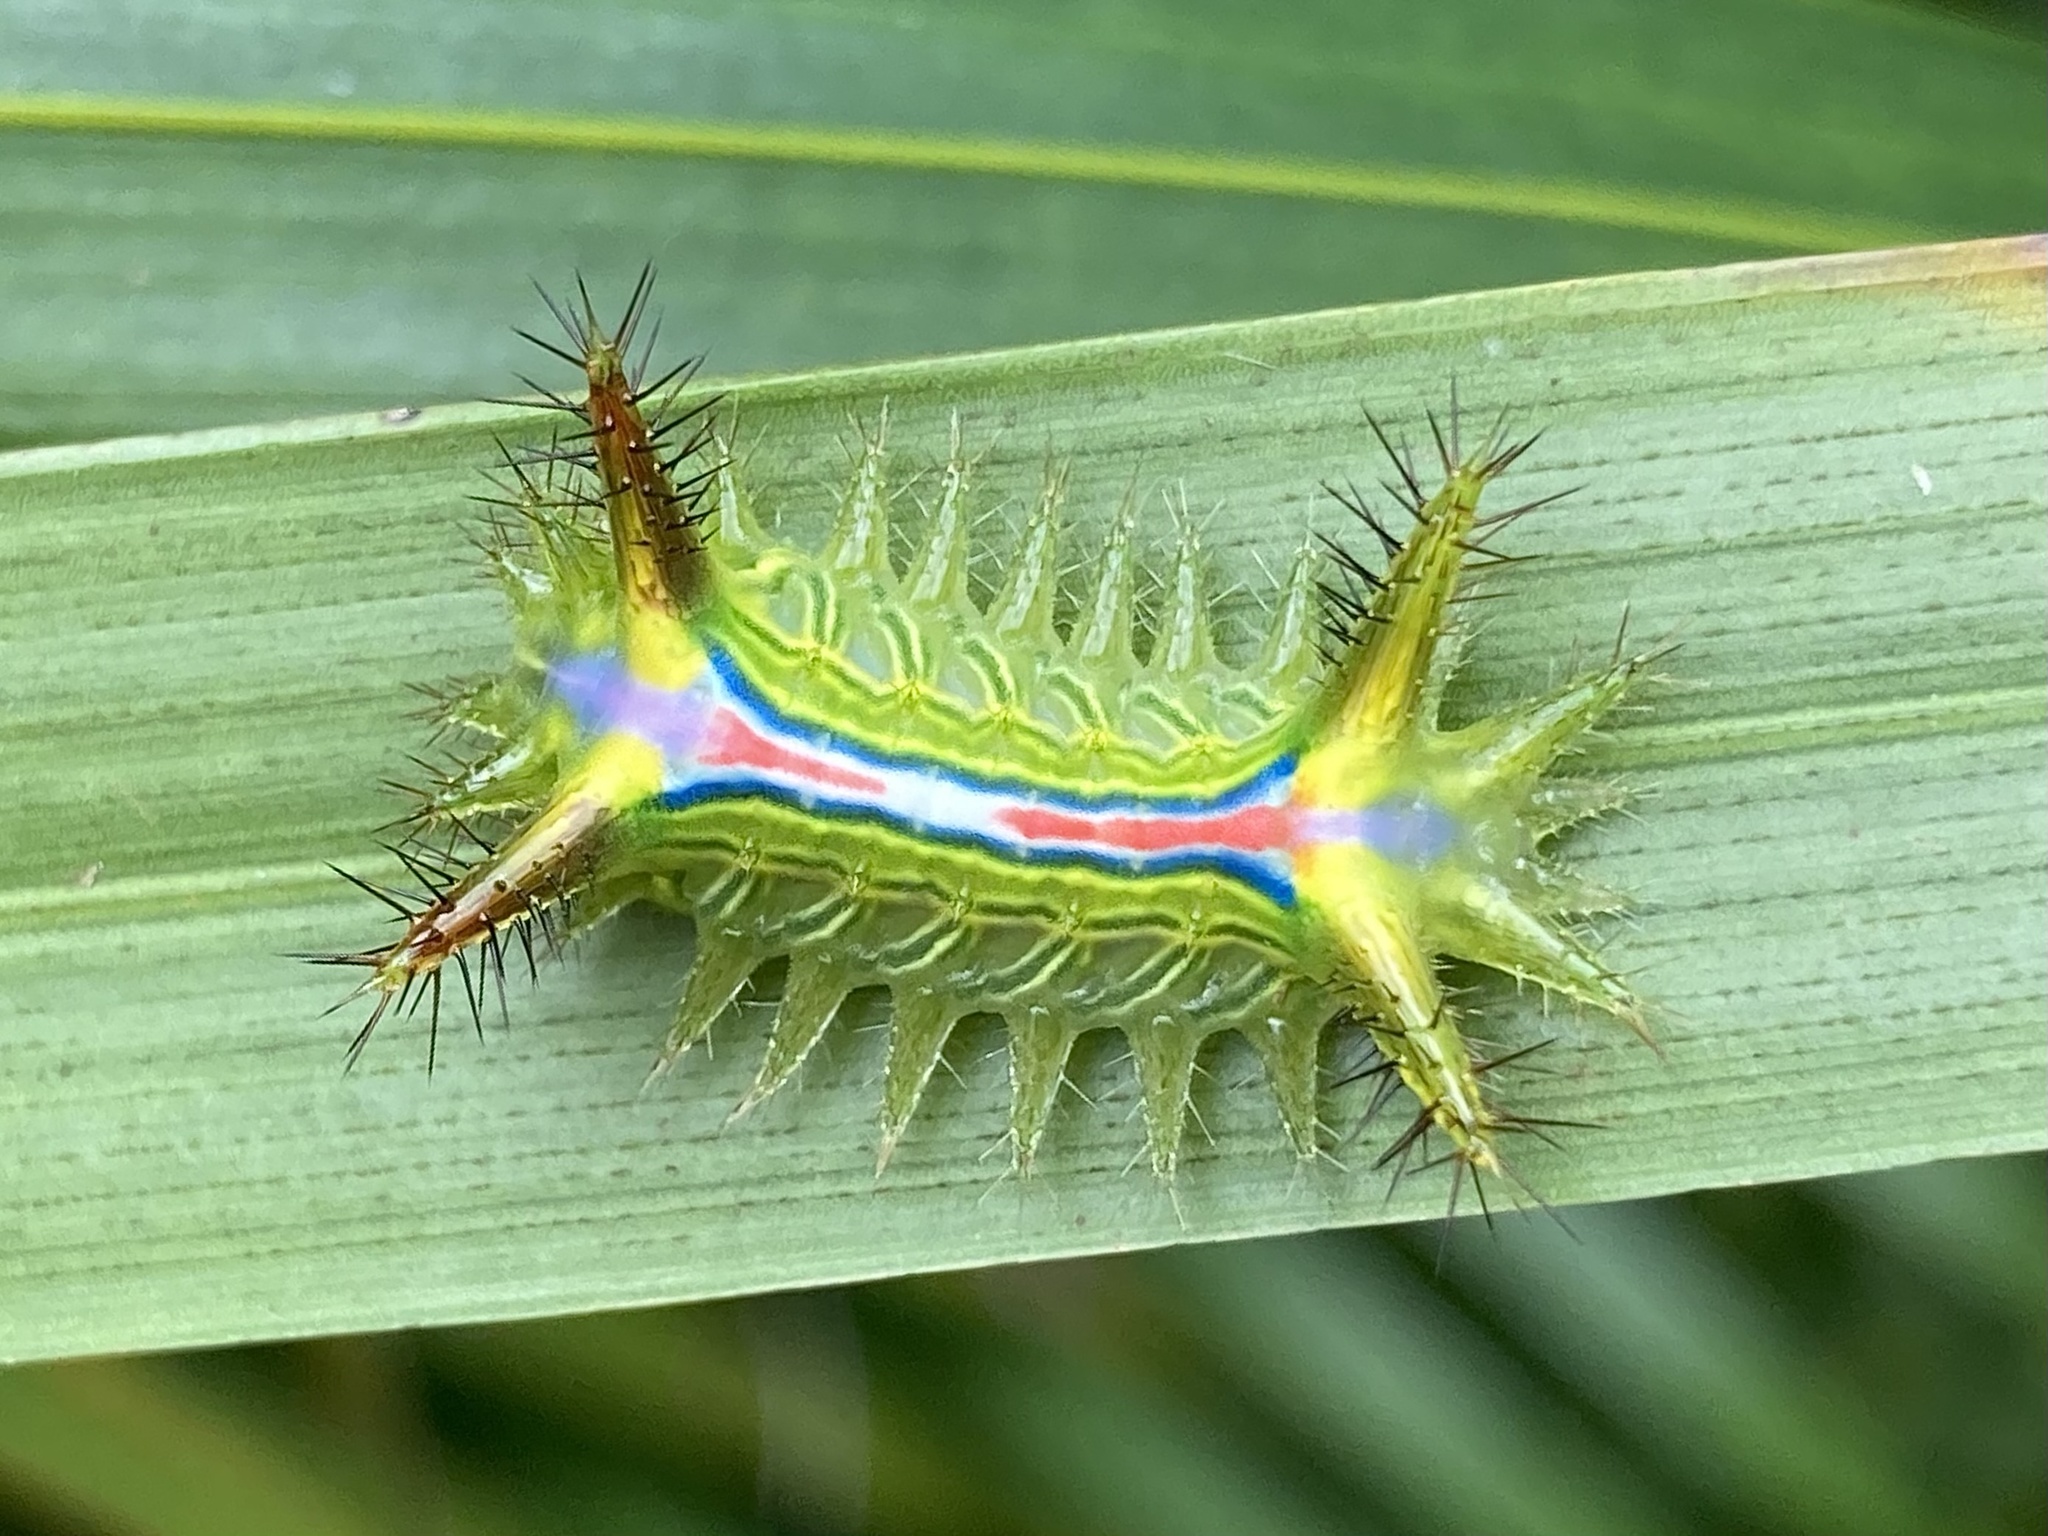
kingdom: Animalia
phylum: Arthropoda
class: Insecta
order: Lepidoptera
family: Limacodidae
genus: Anaxidia
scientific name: Anaxidia lozogramma
